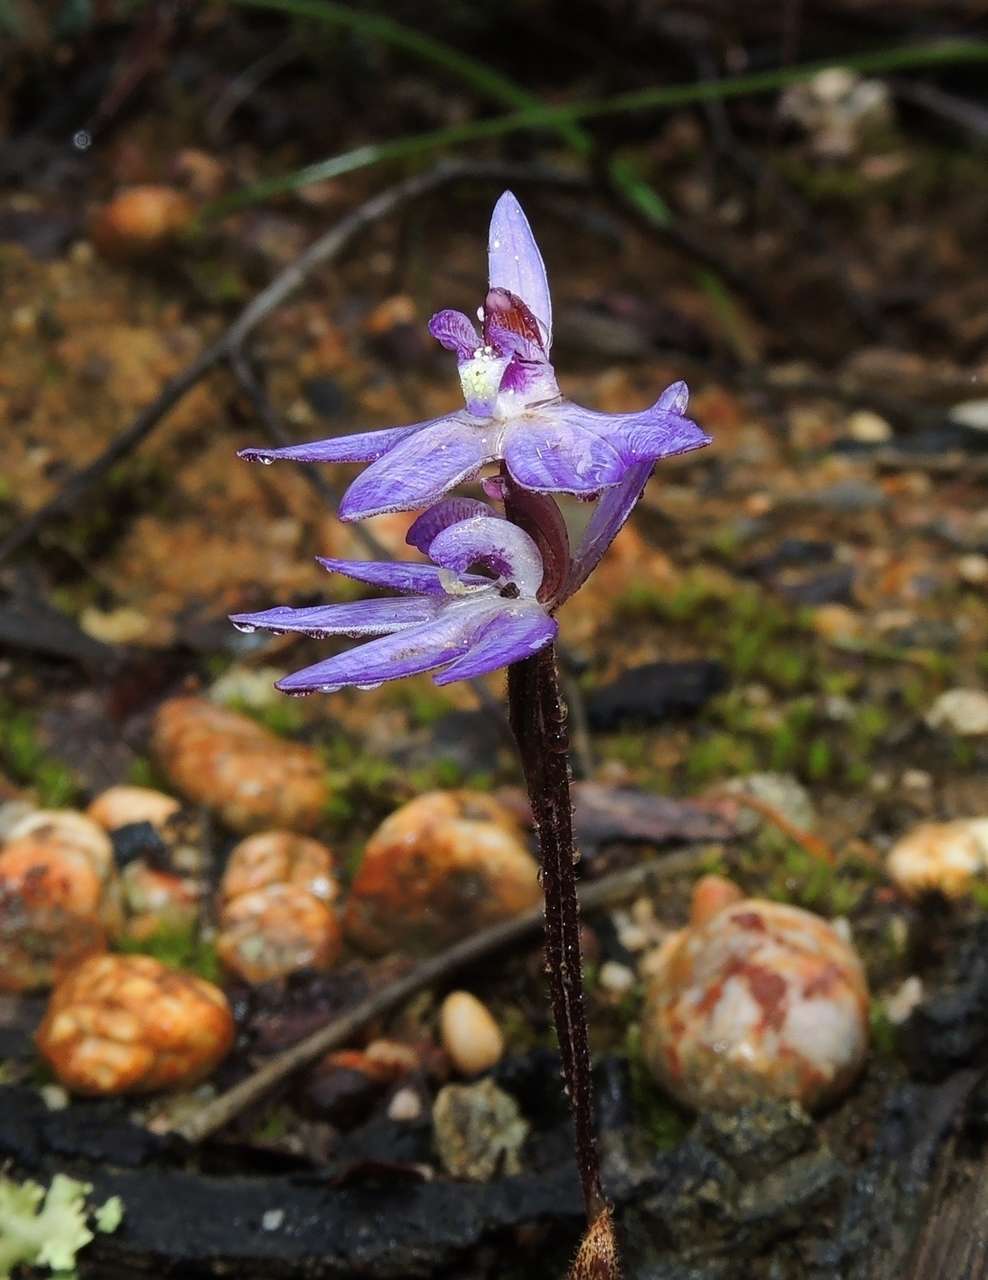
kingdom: Plantae
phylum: Tracheophyta
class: Liliopsida
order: Asparagales
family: Orchidaceae
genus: Caladenia
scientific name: Caladenia caerulea
